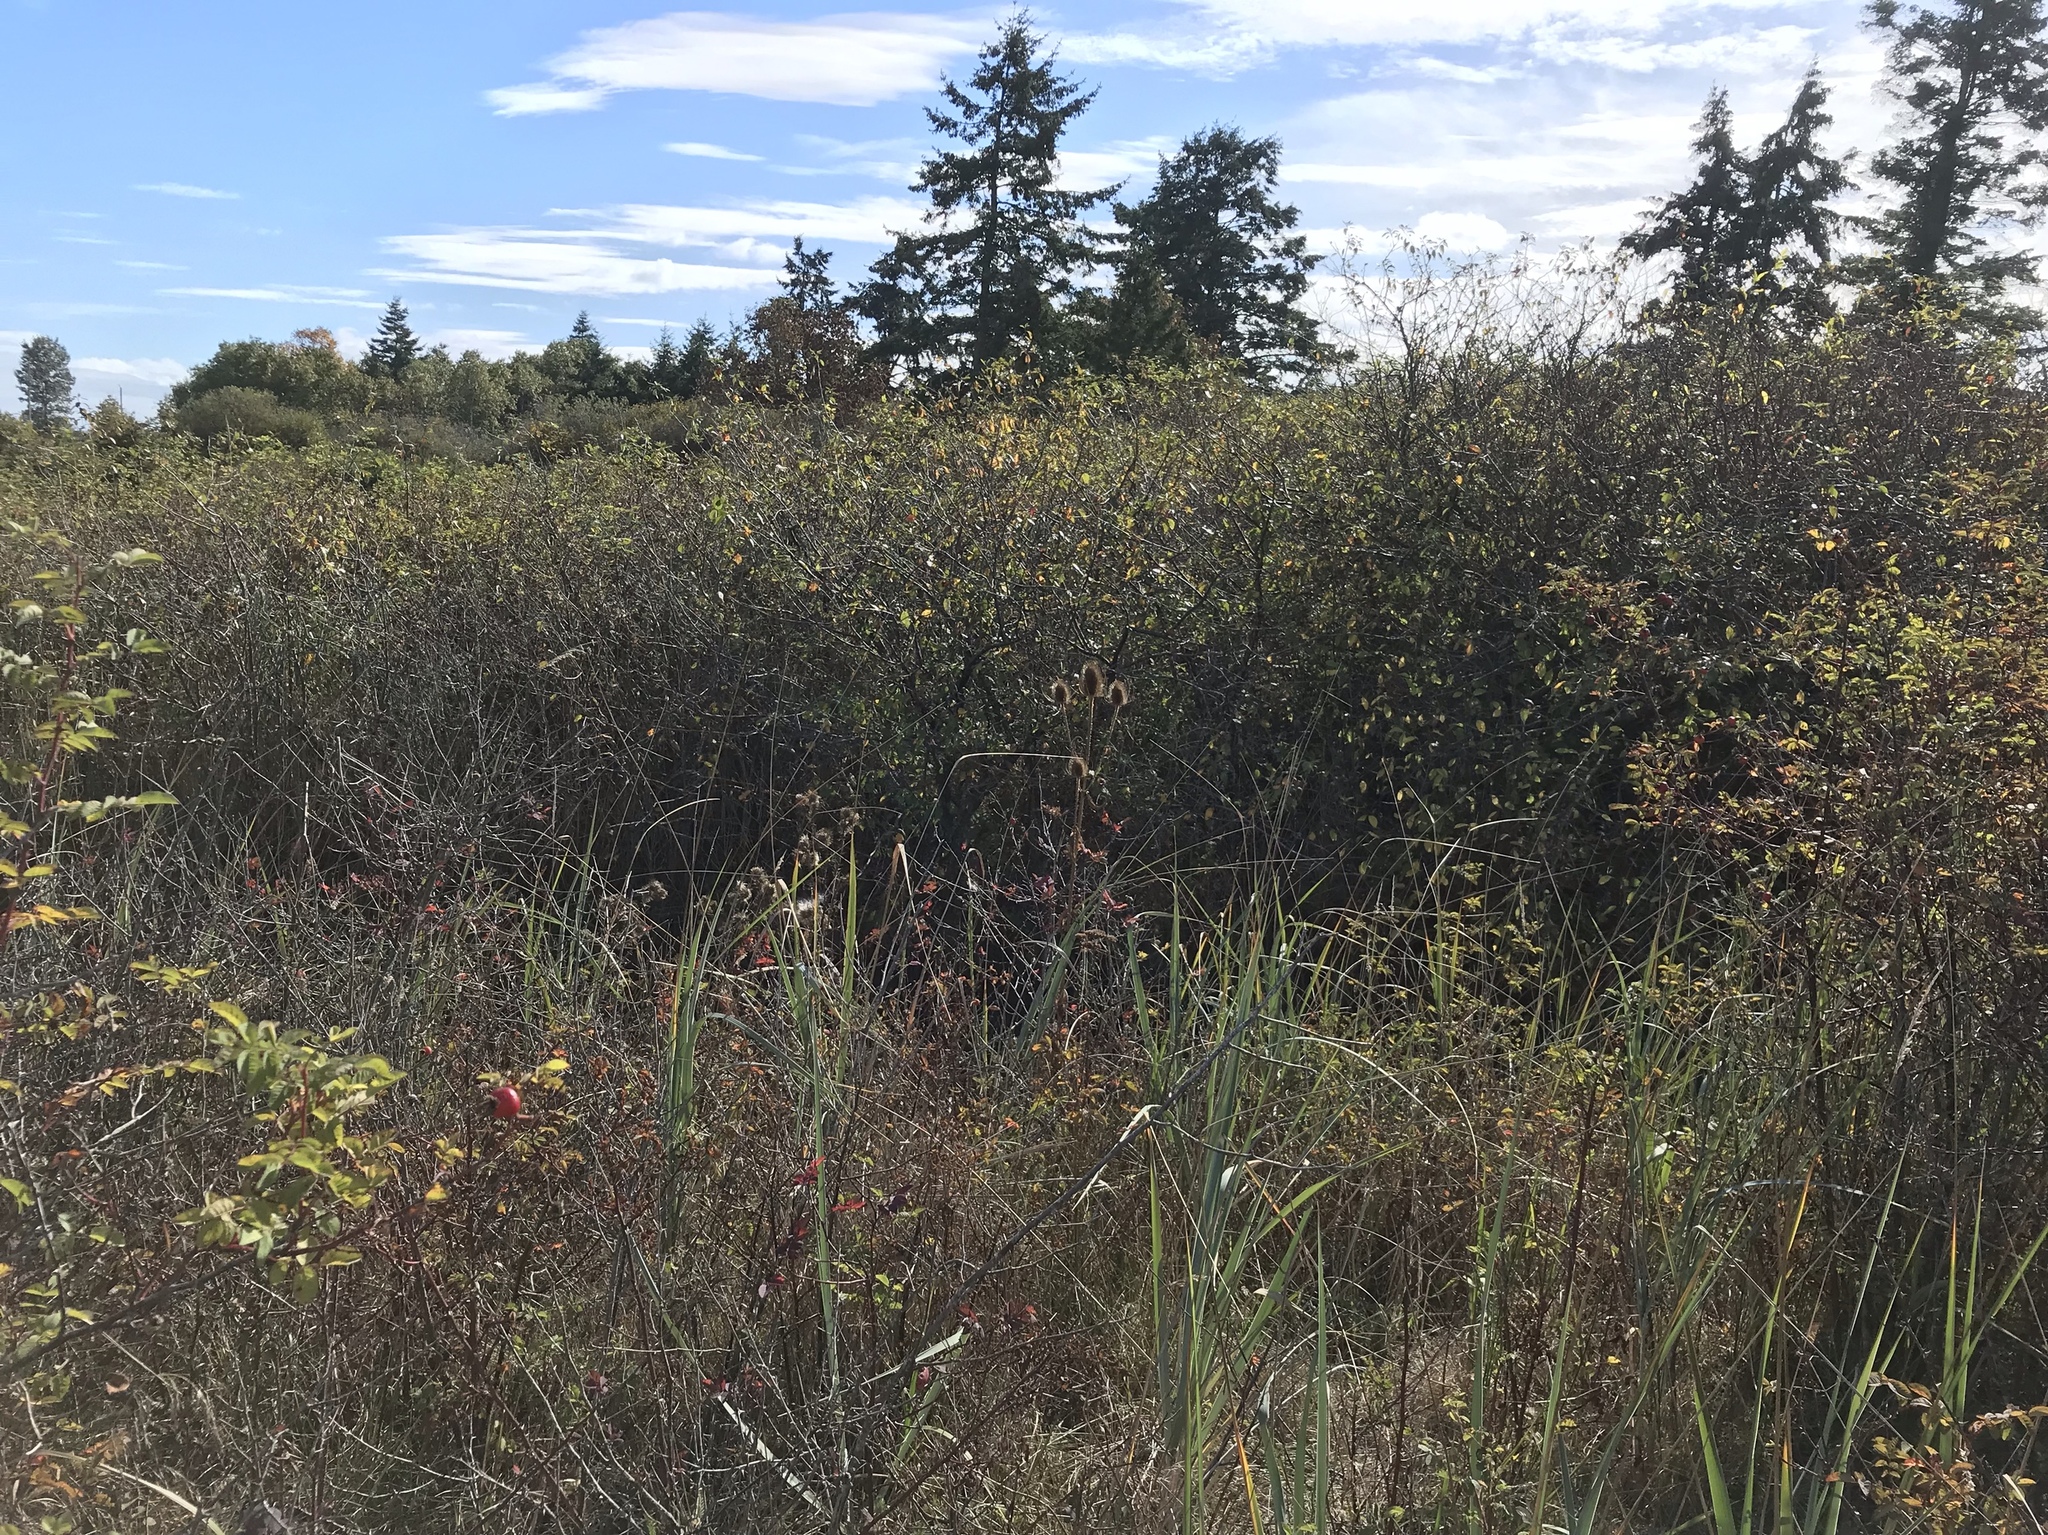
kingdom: Plantae
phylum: Tracheophyta
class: Magnoliopsida
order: Dipsacales
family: Caprifoliaceae
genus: Dipsacus
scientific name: Dipsacus fullonum
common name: Teasel
